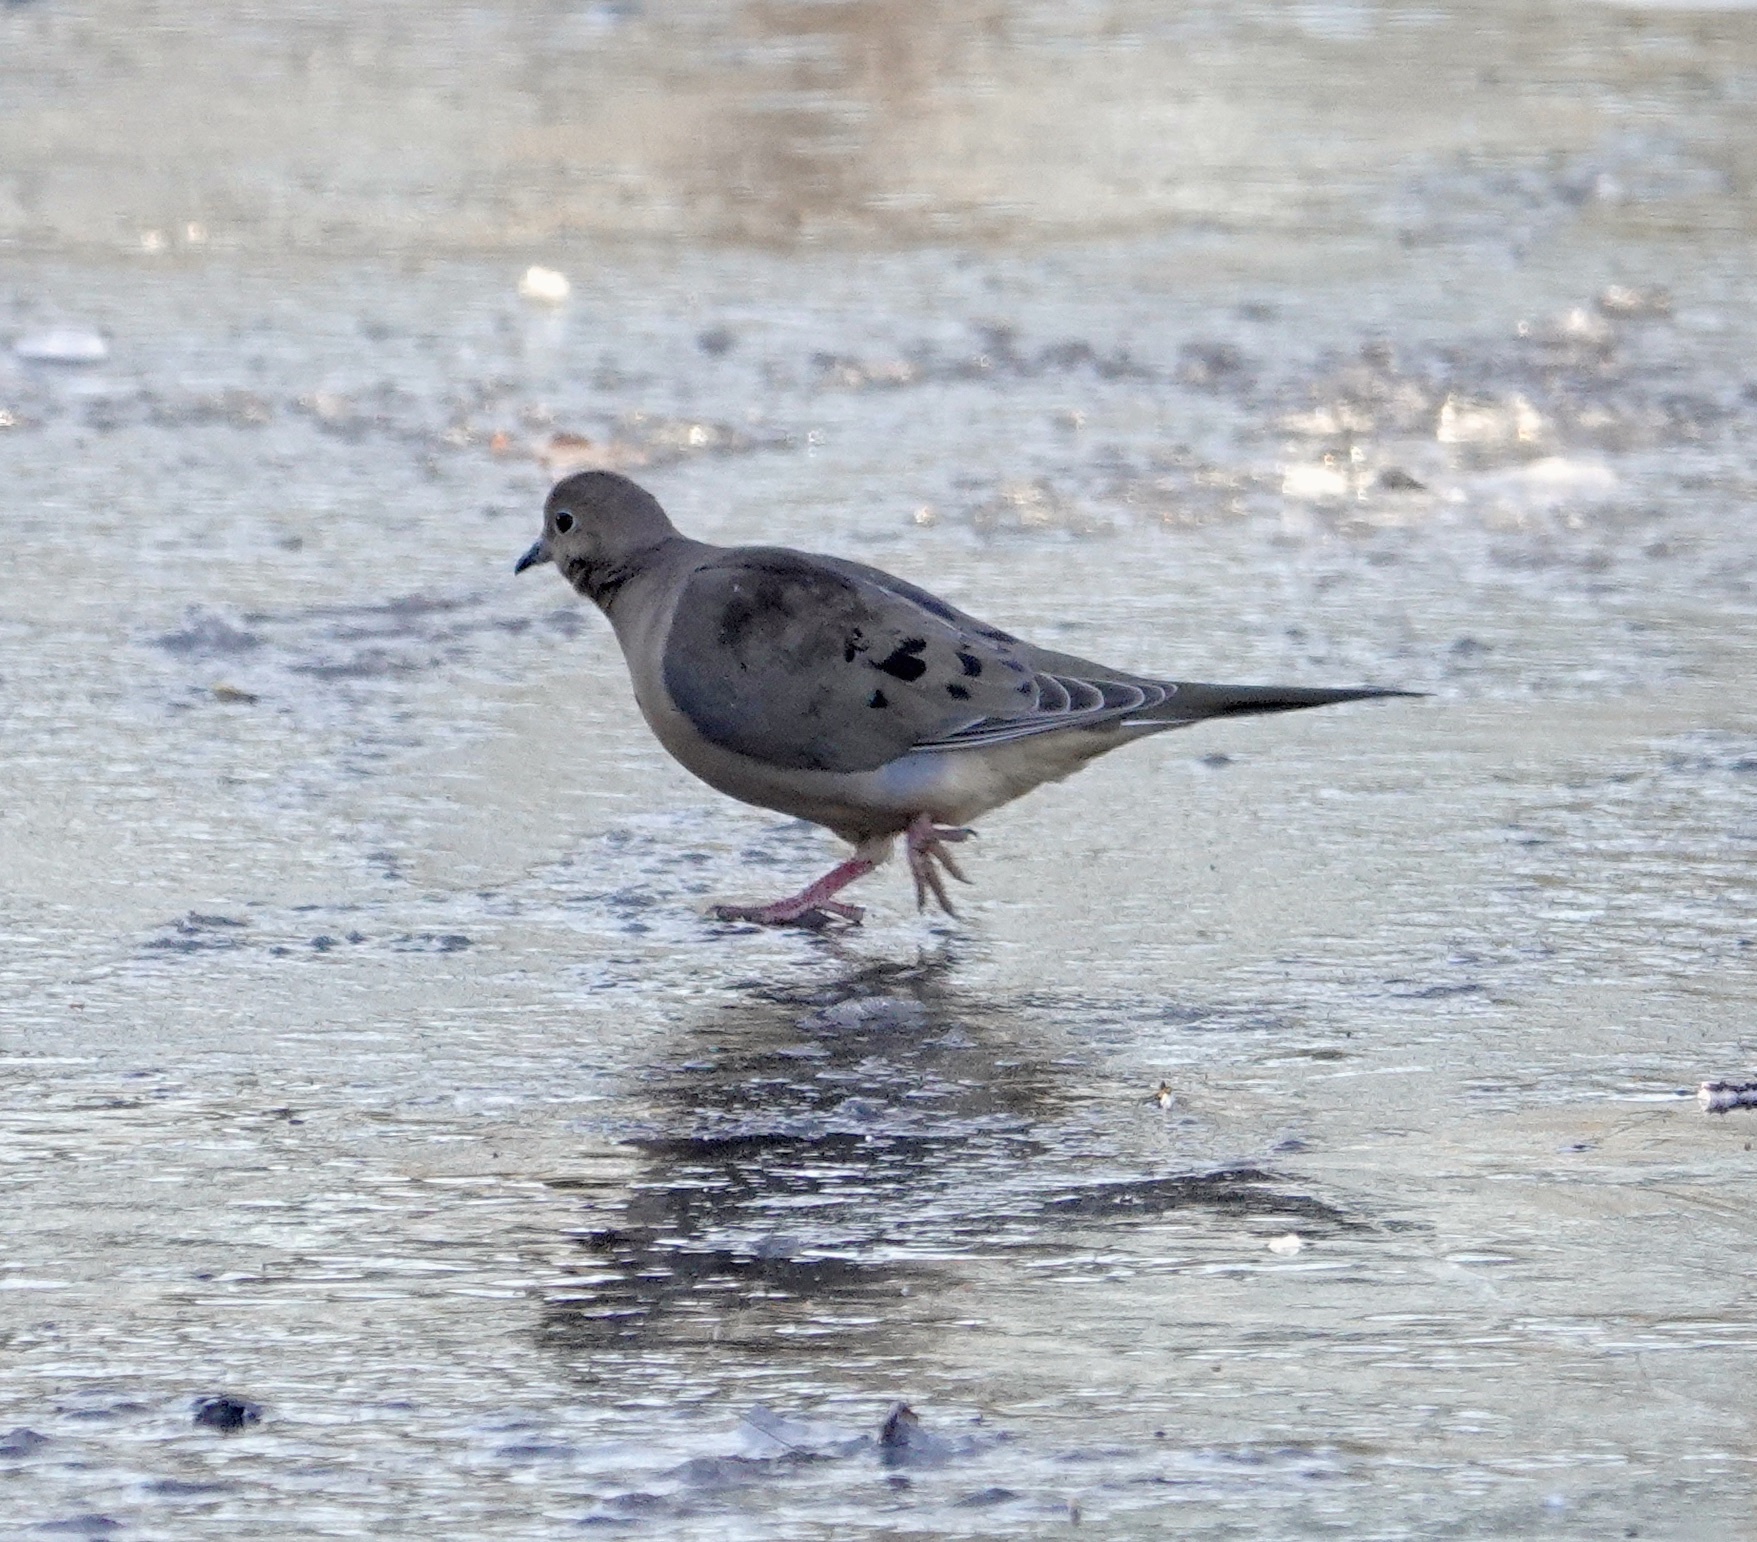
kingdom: Animalia
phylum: Chordata
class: Aves
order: Columbiformes
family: Columbidae
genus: Zenaida
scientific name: Zenaida macroura
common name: Mourning dove
